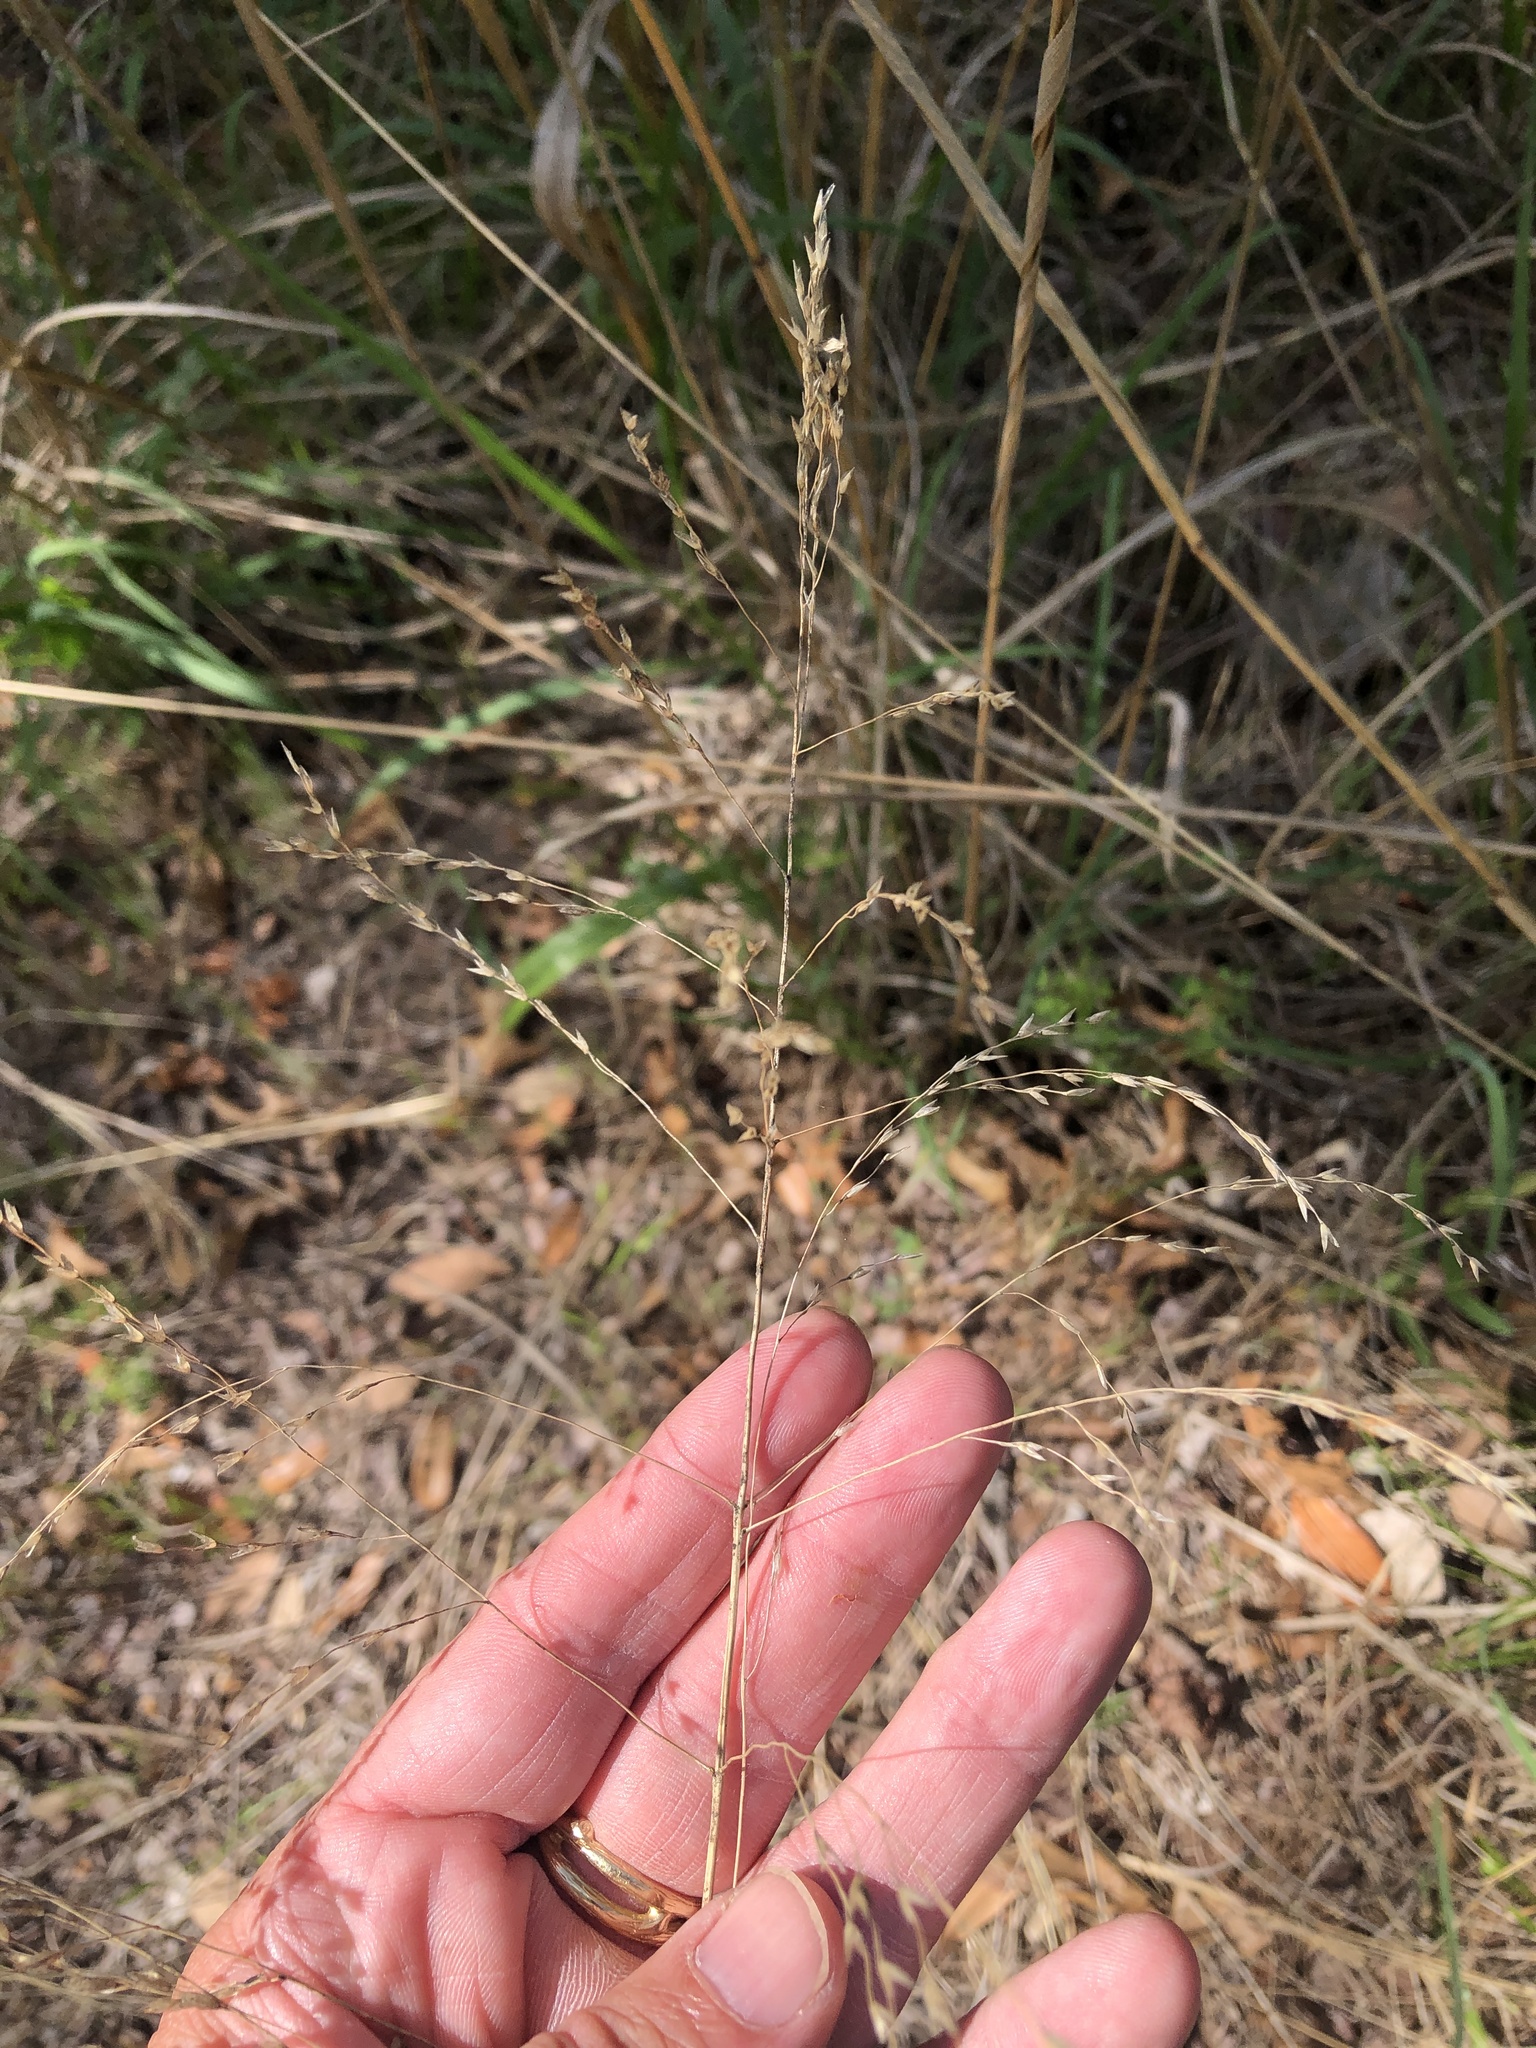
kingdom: Plantae
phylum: Tracheophyta
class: Liliopsida
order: Poales
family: Poaceae
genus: Tridens
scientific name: Tridens flavus
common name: Purpletop
